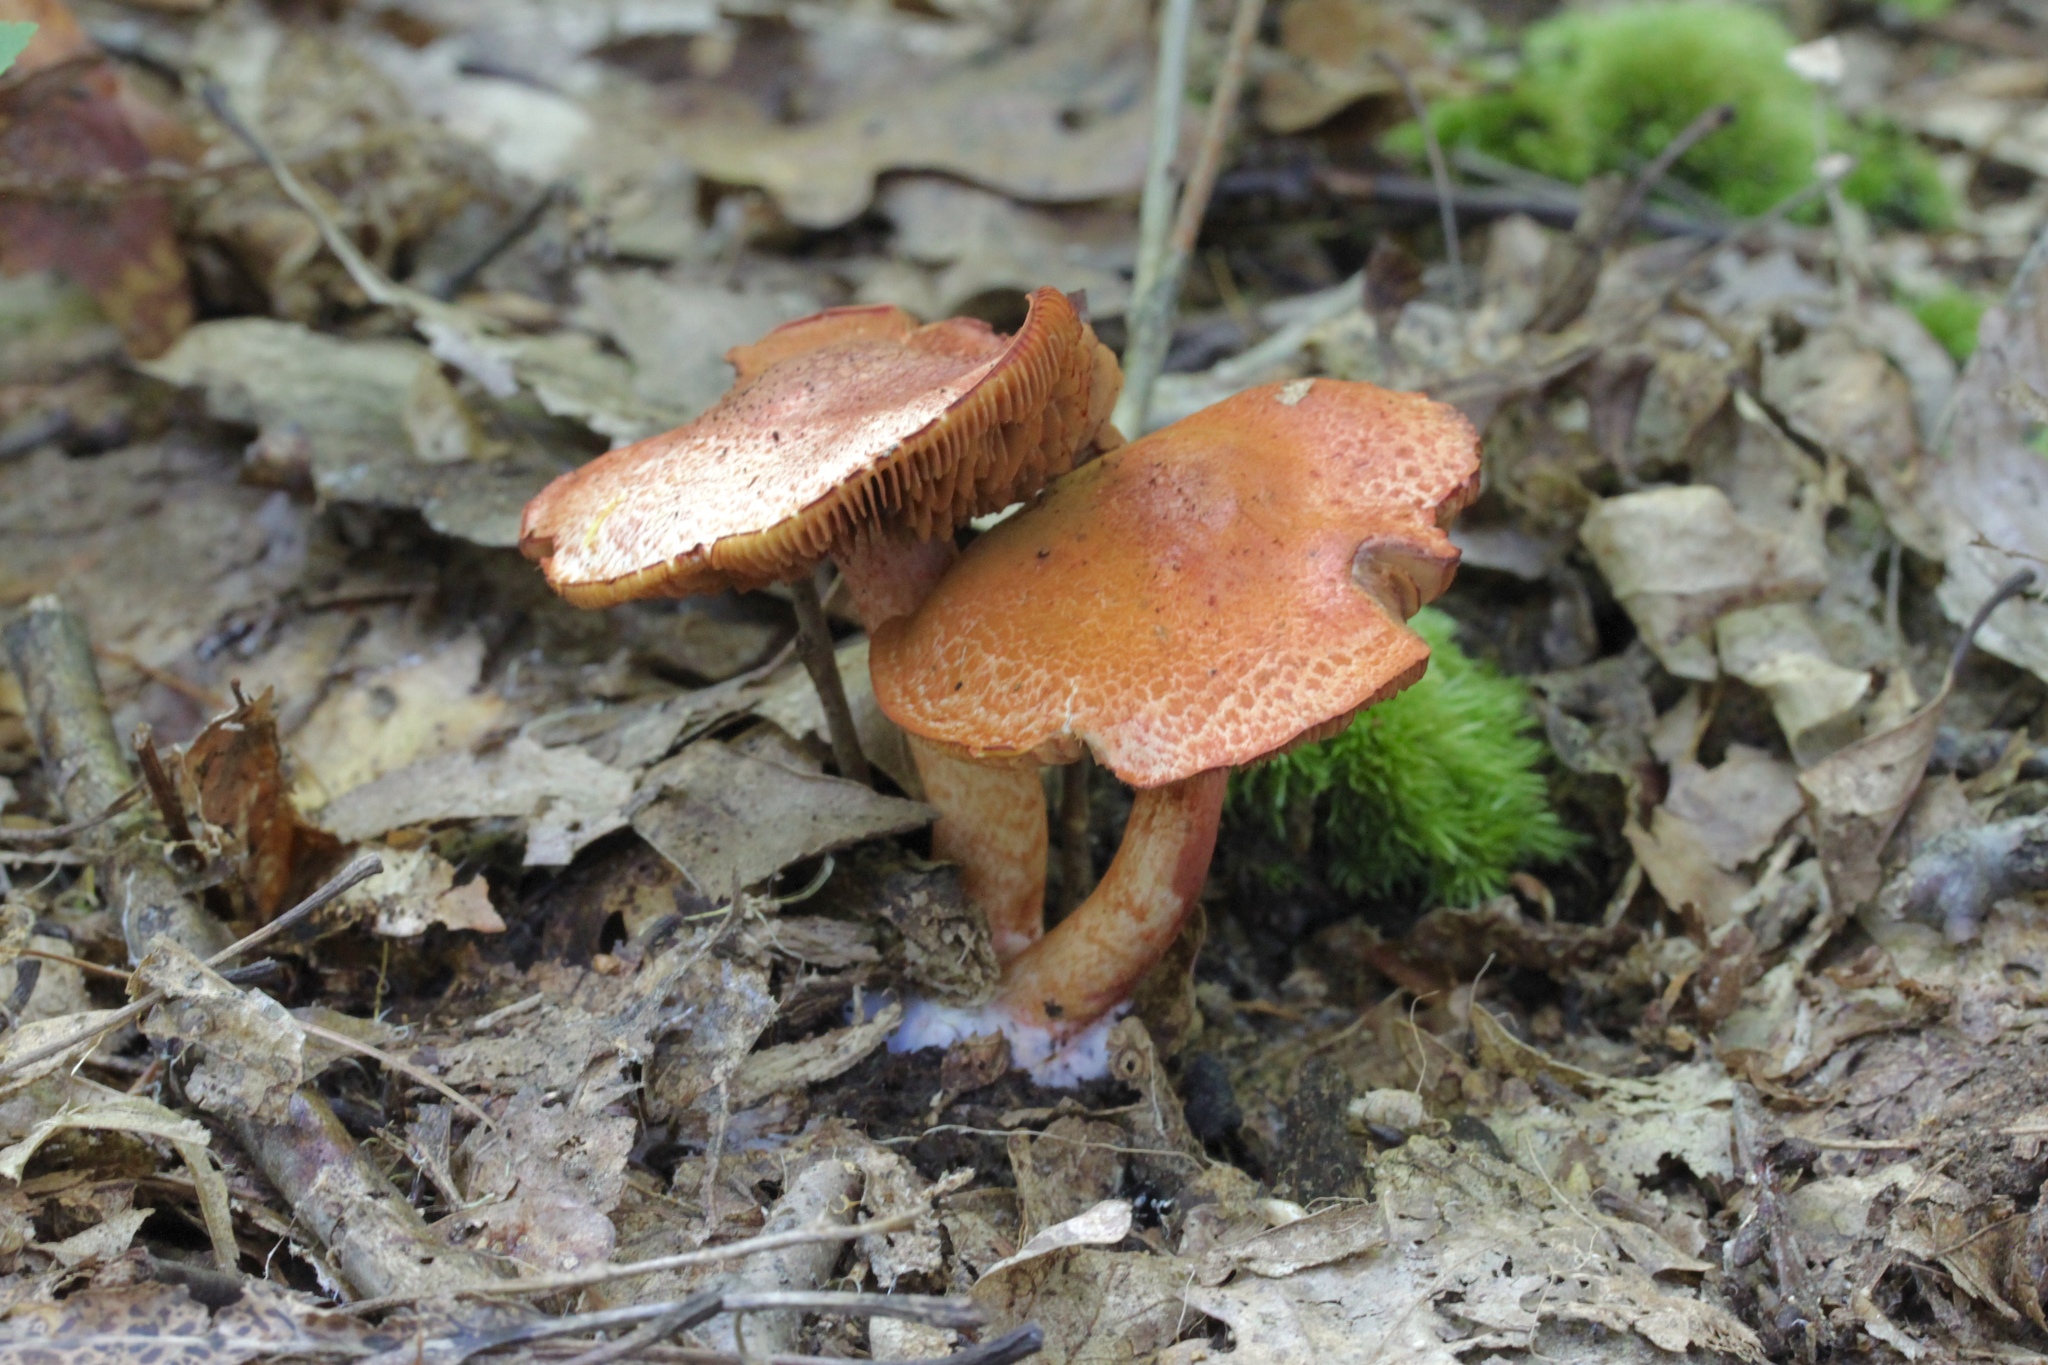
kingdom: Fungi
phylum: Basidiomycota
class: Agaricomycetes
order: Agaricales
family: Cortinariaceae
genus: Cortinarius
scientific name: Cortinarius bolaris
